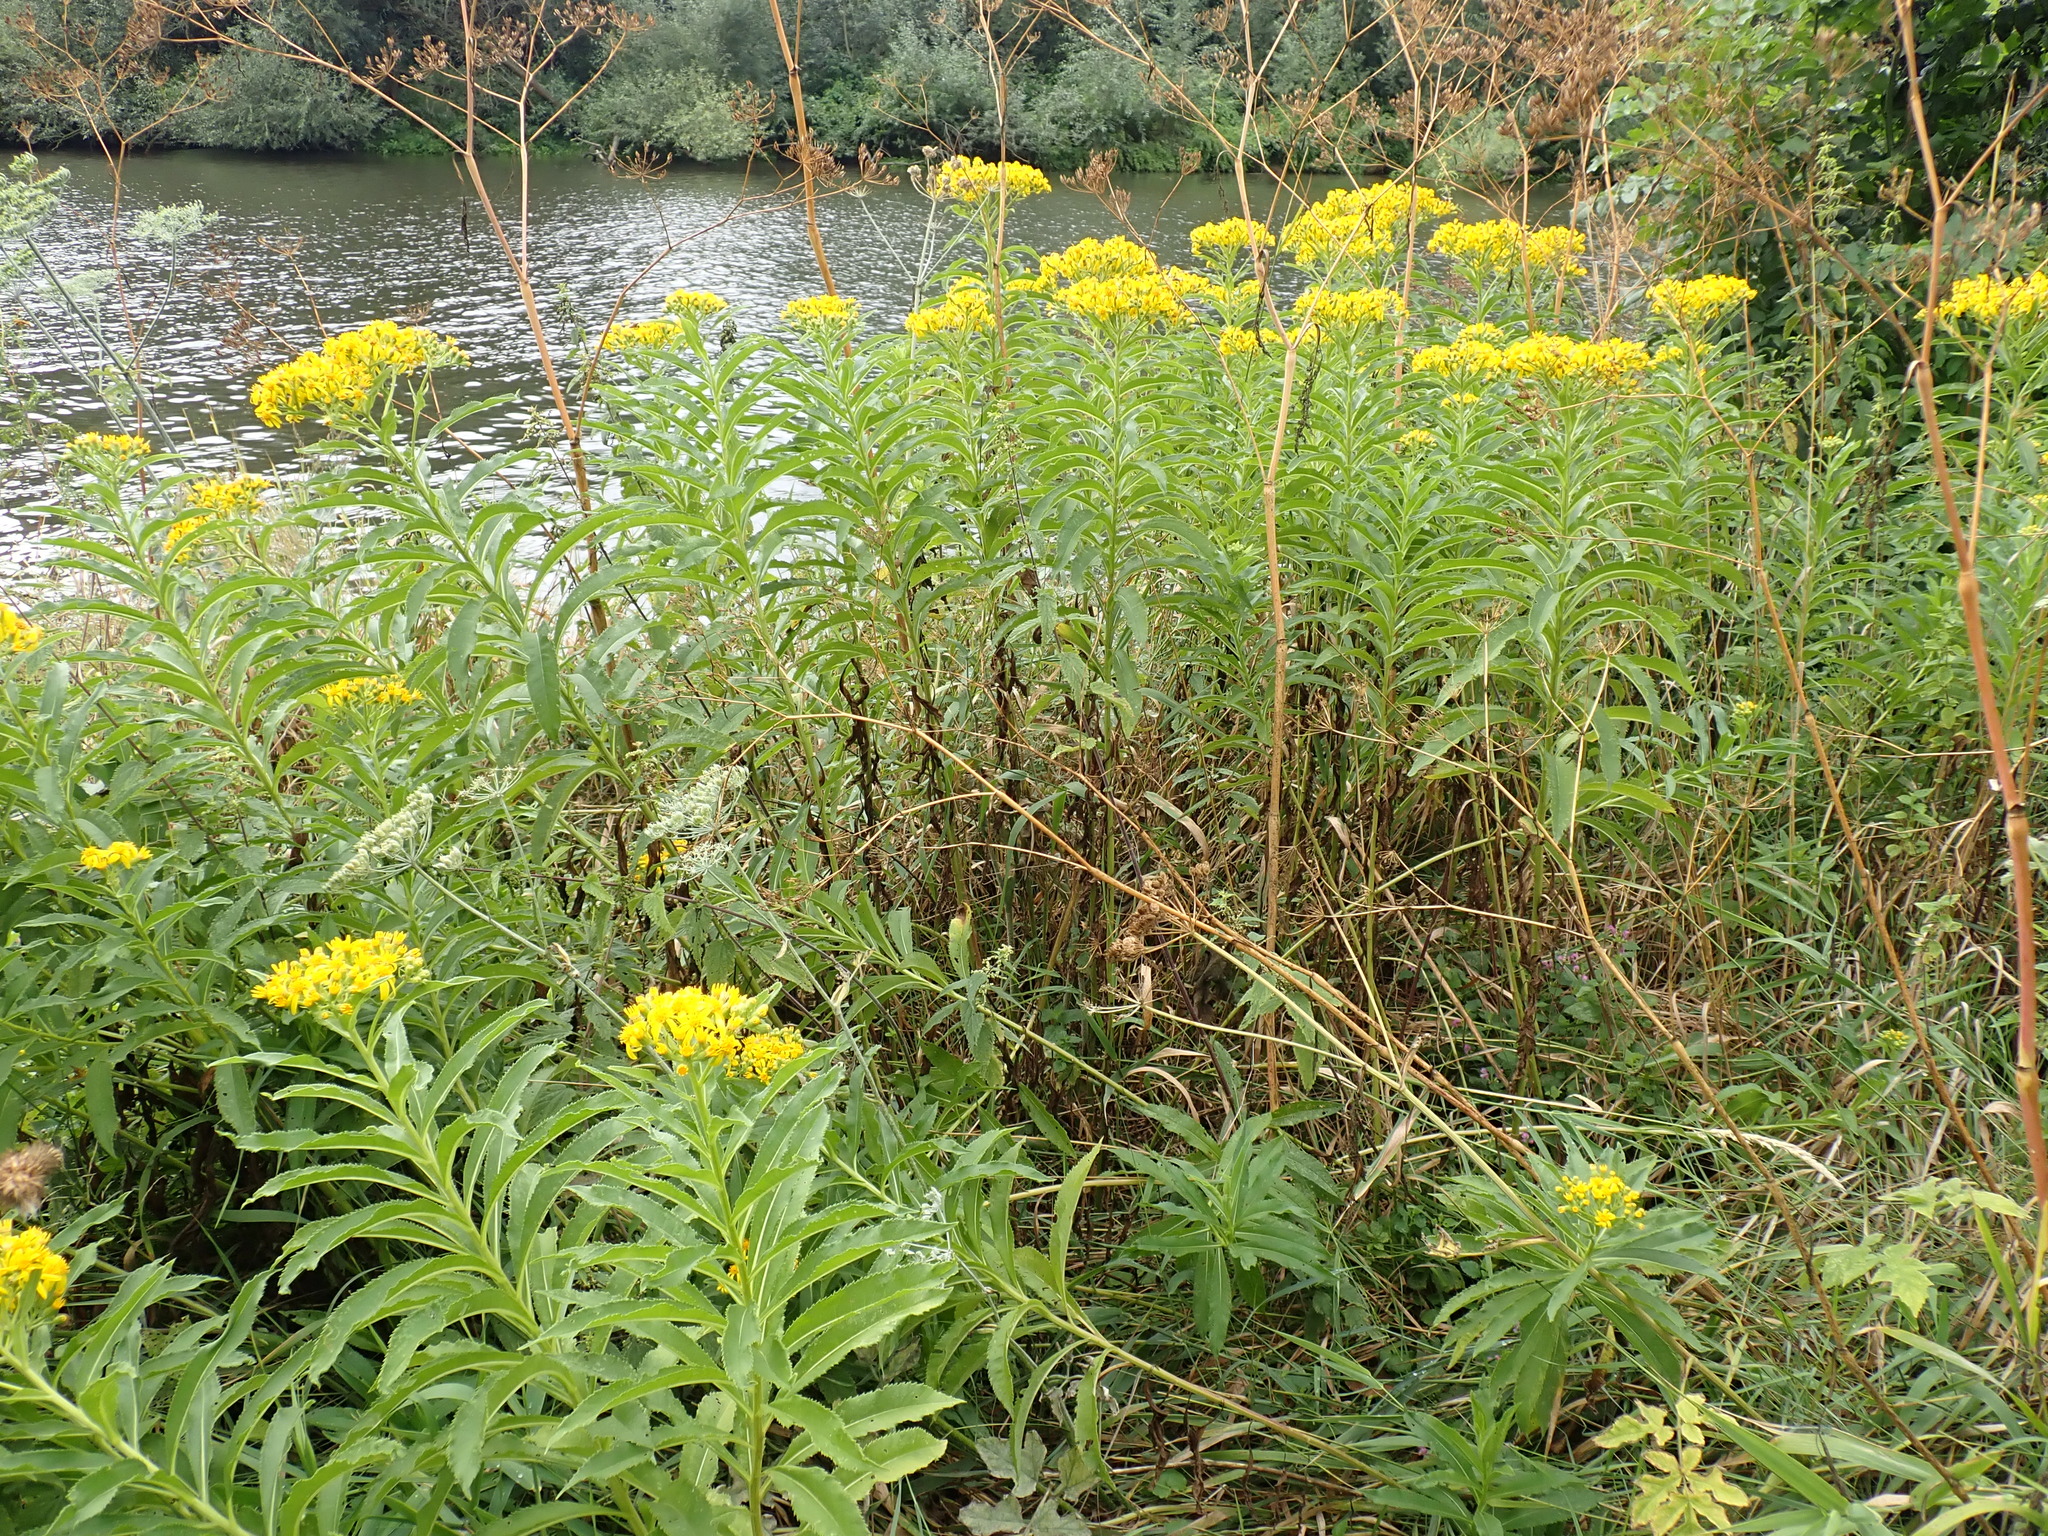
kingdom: Plantae
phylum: Tracheophyta
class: Magnoliopsida
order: Asterales
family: Asteraceae
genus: Senecio
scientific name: Senecio sarracenicus
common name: Broad-leaved ragwort
